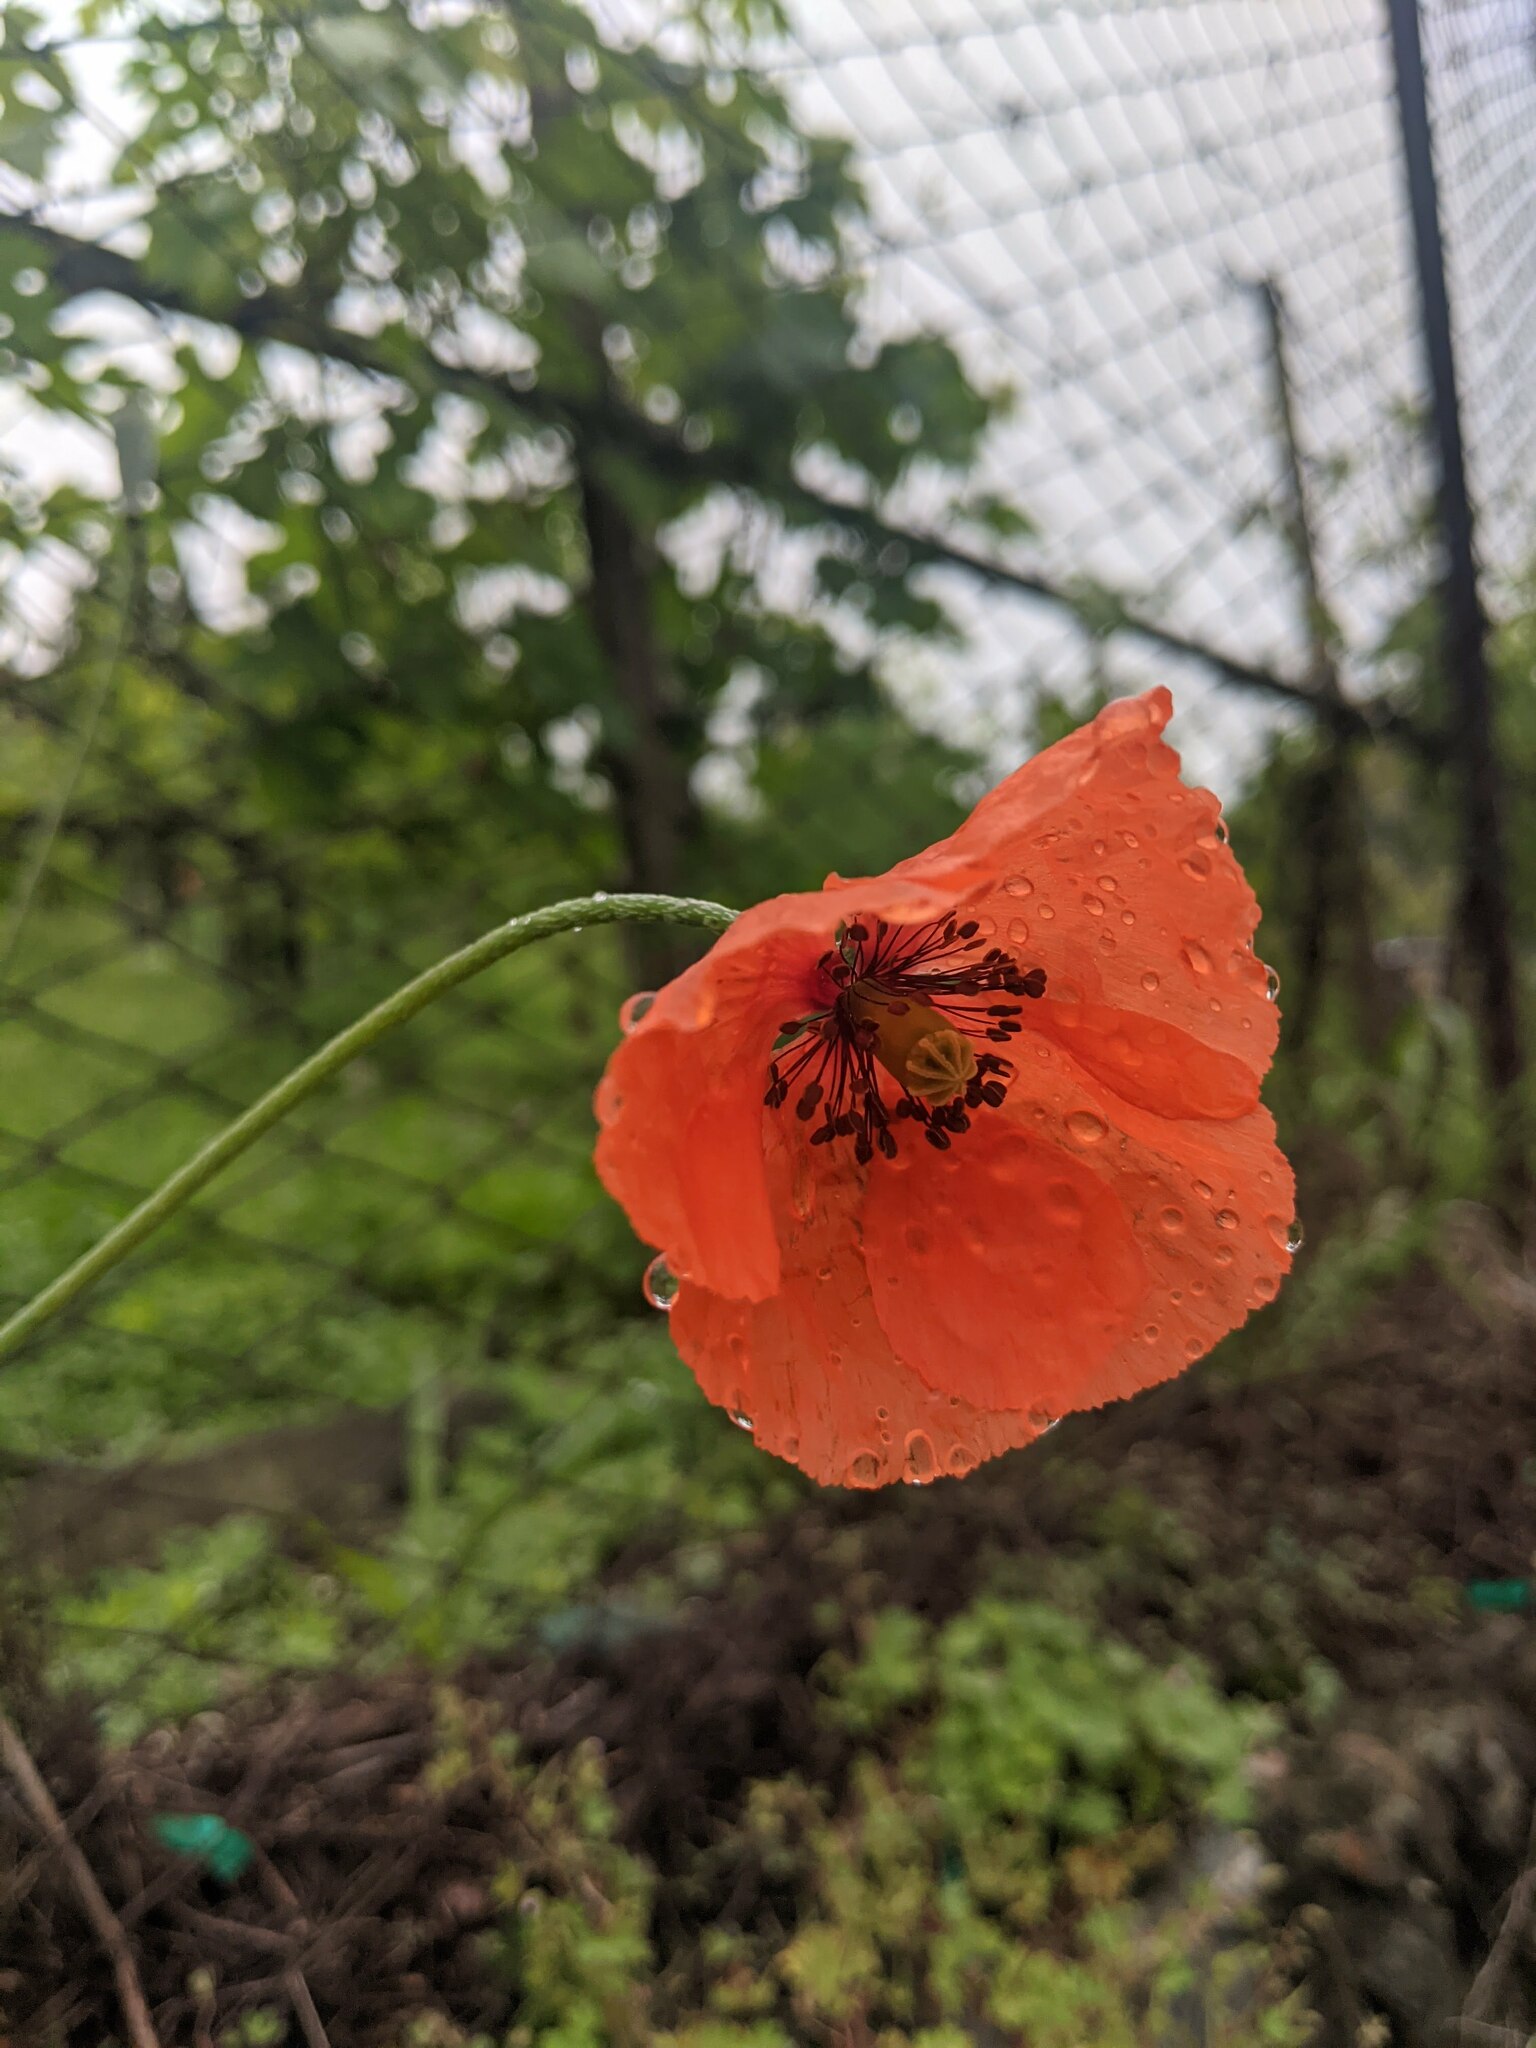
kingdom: Plantae
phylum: Tracheophyta
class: Magnoliopsida
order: Ranunculales
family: Papaveraceae
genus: Papaver
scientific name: Papaver rhoeas
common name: Corn poppy
